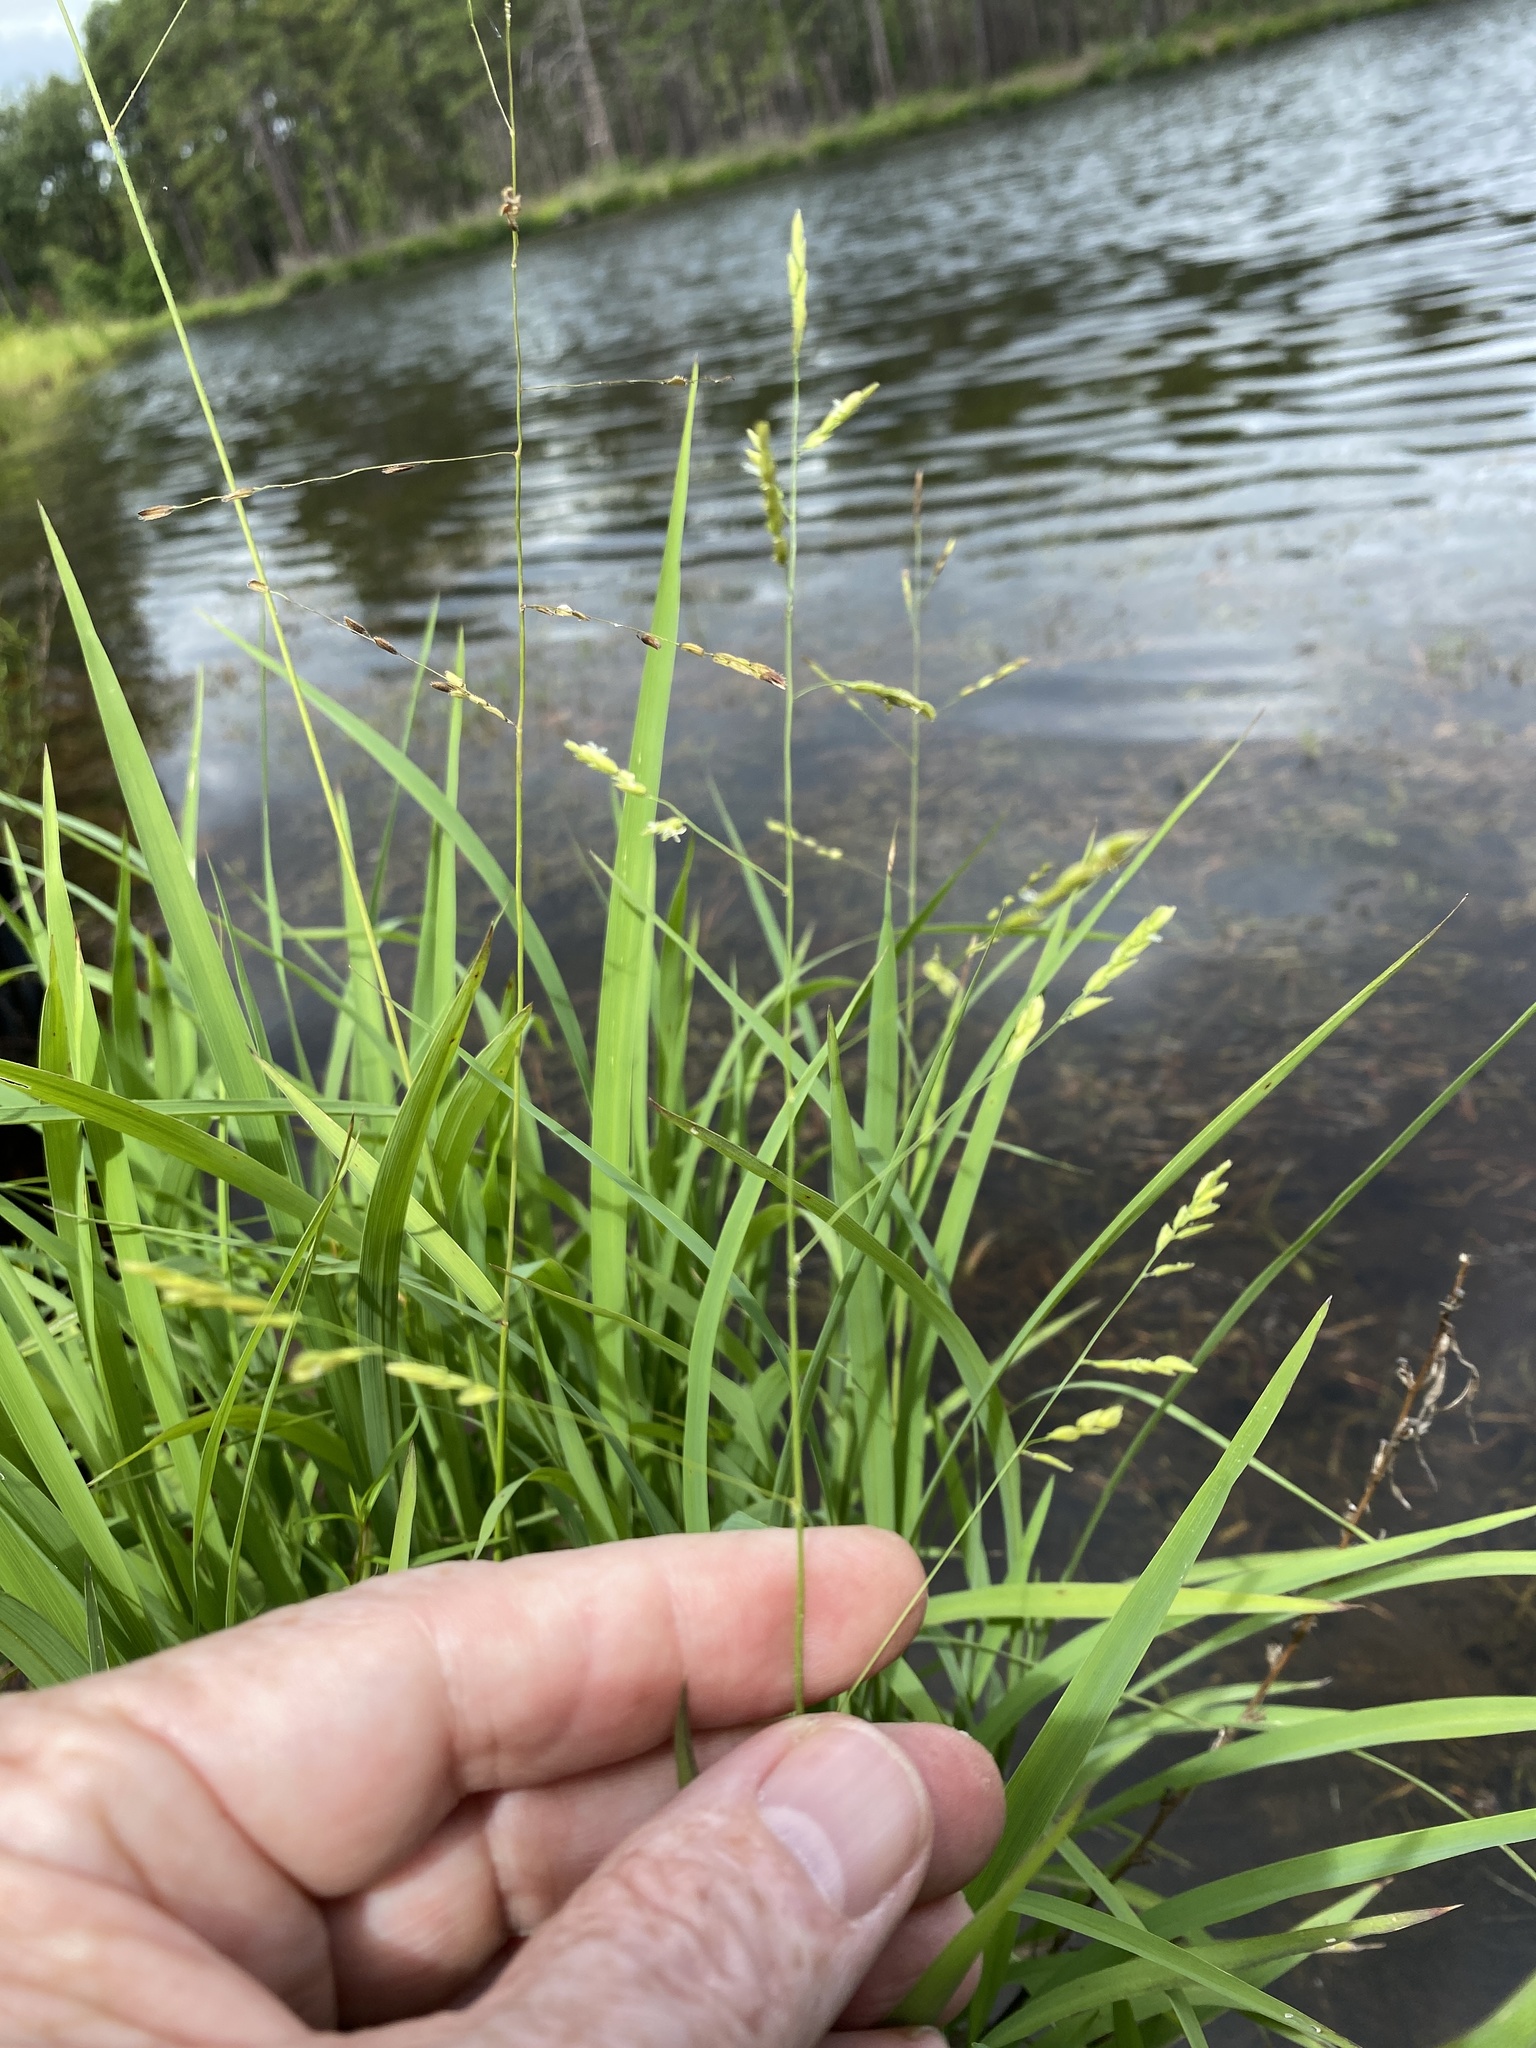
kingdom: Plantae
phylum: Tracheophyta
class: Liliopsida
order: Poales
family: Poaceae
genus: Leersia
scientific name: Leersia virginica
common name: White cutgrass
